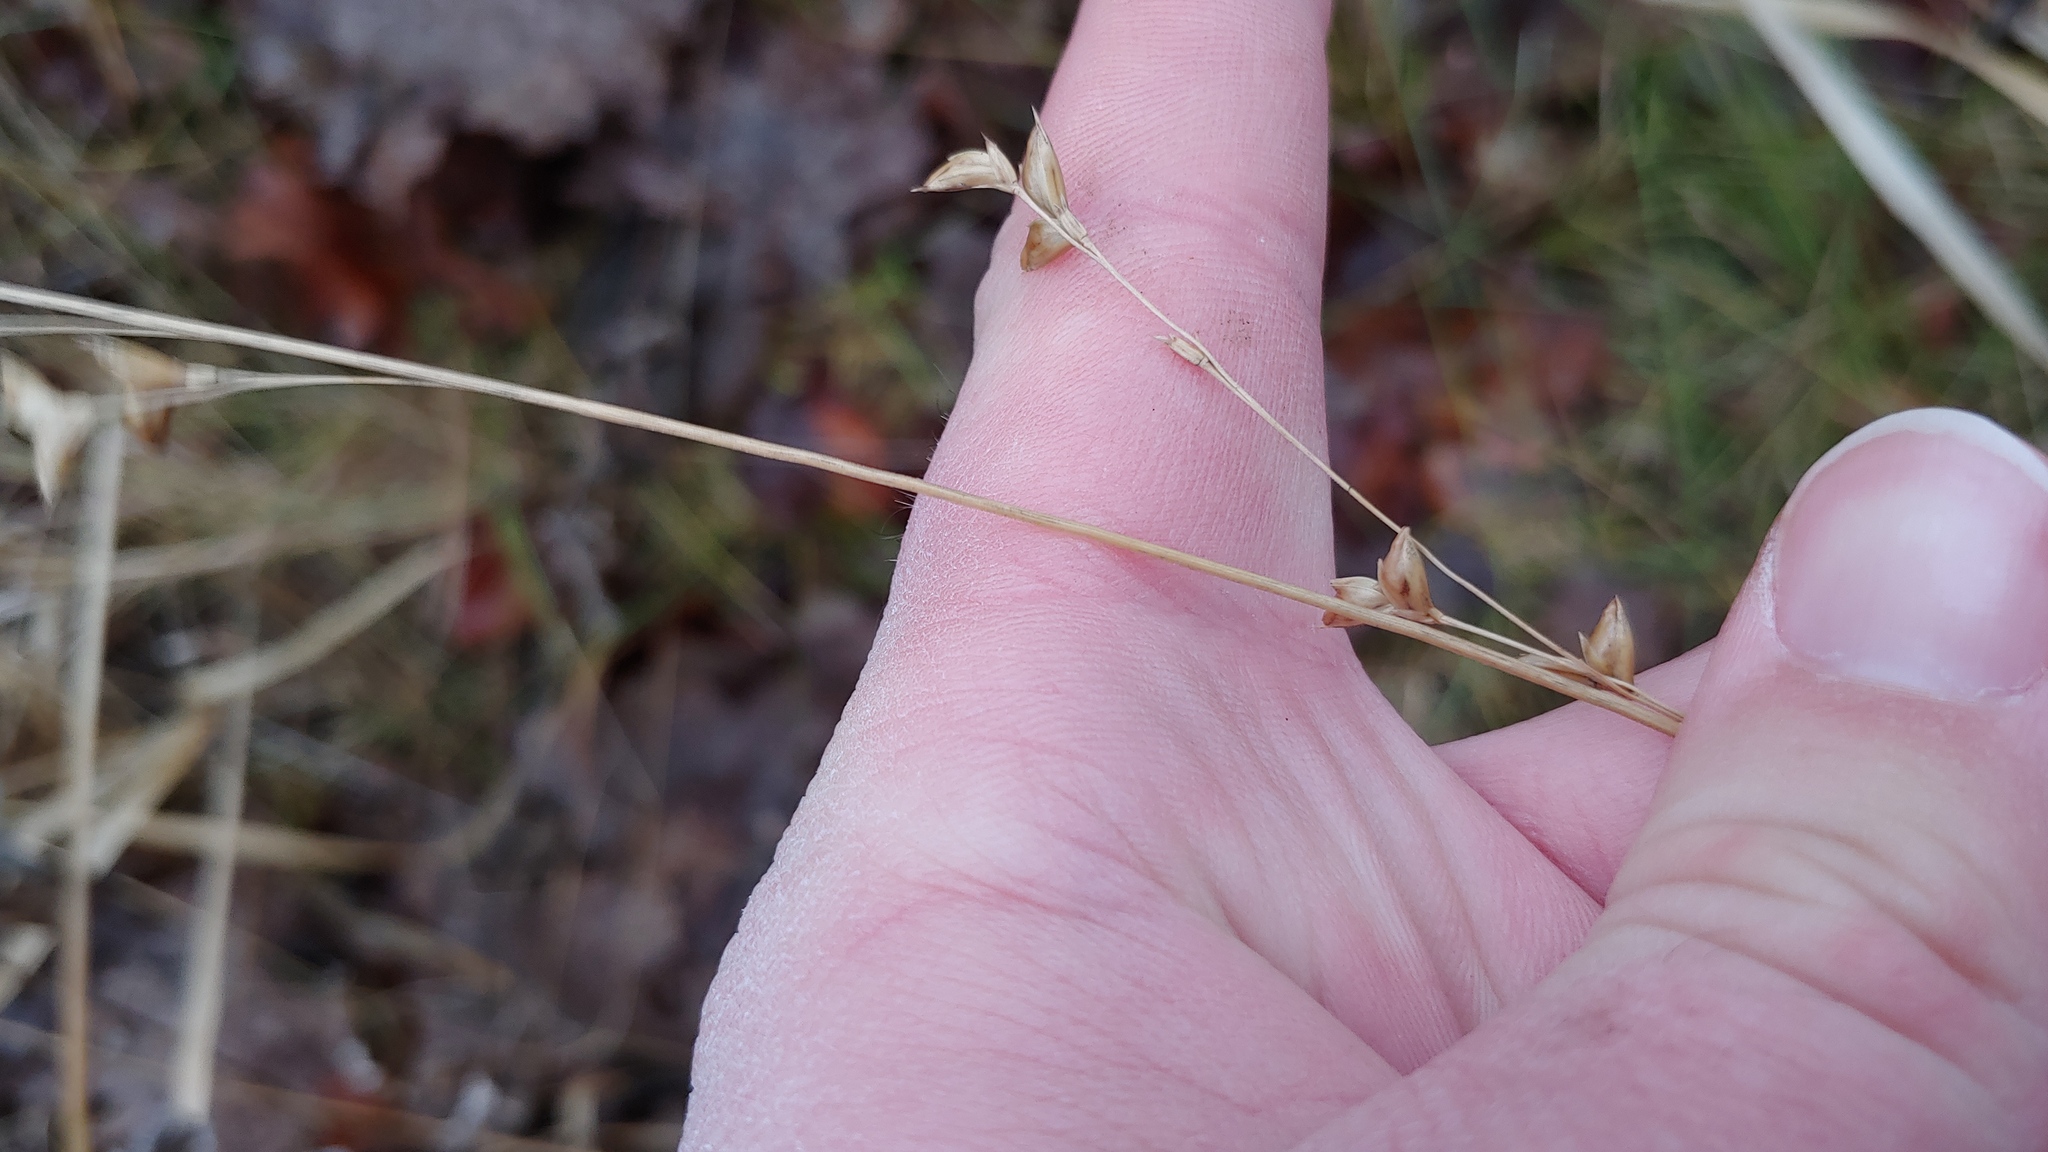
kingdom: Plantae
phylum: Tracheophyta
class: Liliopsida
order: Poales
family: Poaceae
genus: Diarrhena
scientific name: Diarrhena obovata
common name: Beakgrass
